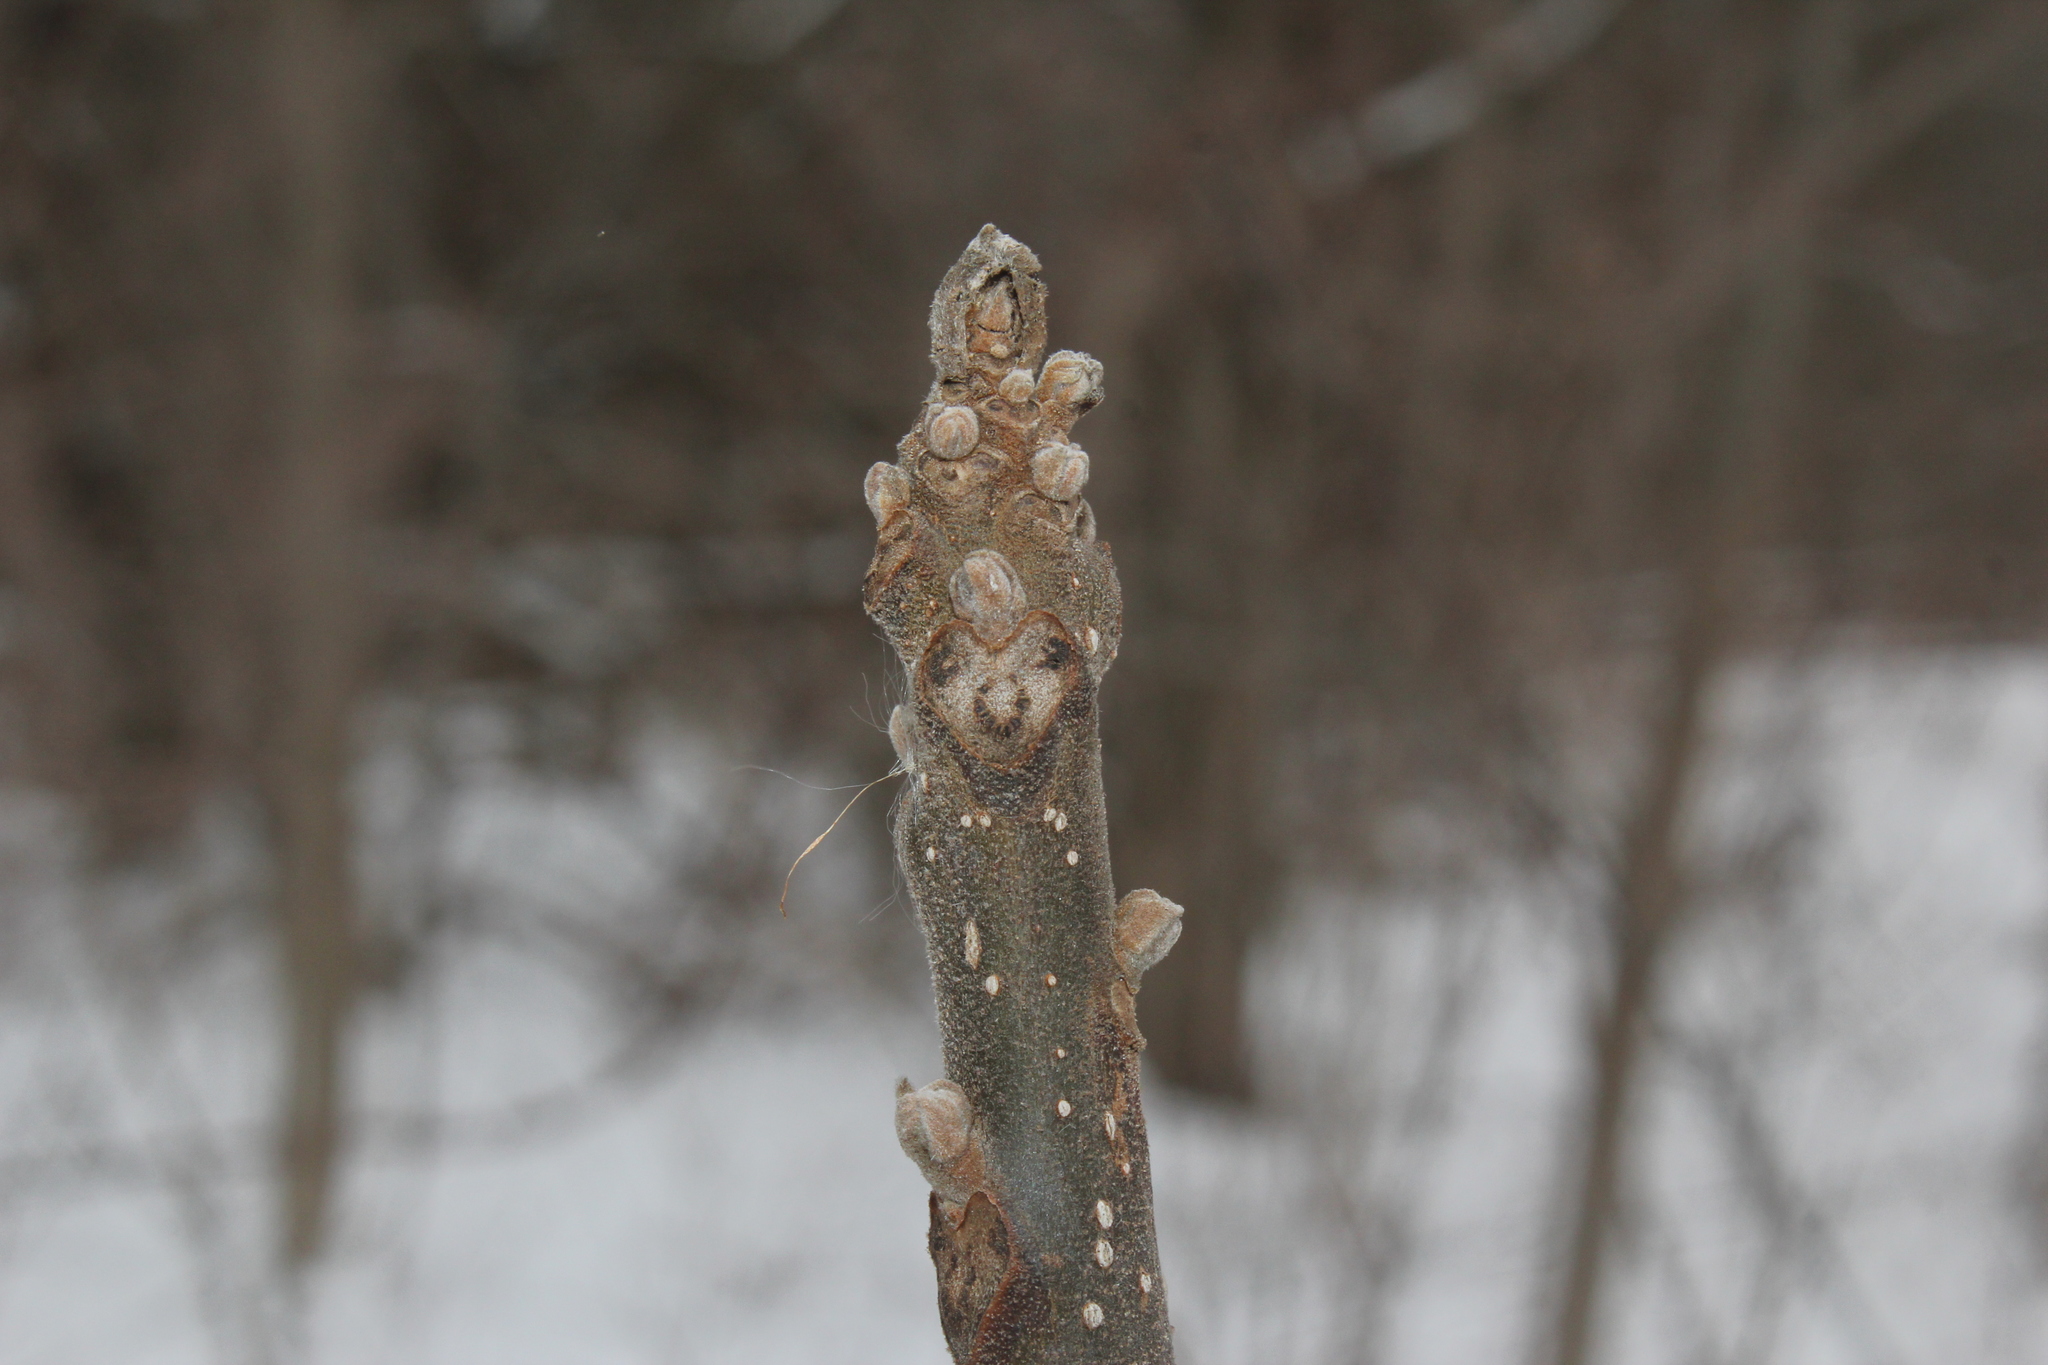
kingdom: Plantae
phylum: Tracheophyta
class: Magnoliopsida
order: Fagales
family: Juglandaceae
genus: Juglans
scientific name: Juglans nigra
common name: Black walnut
